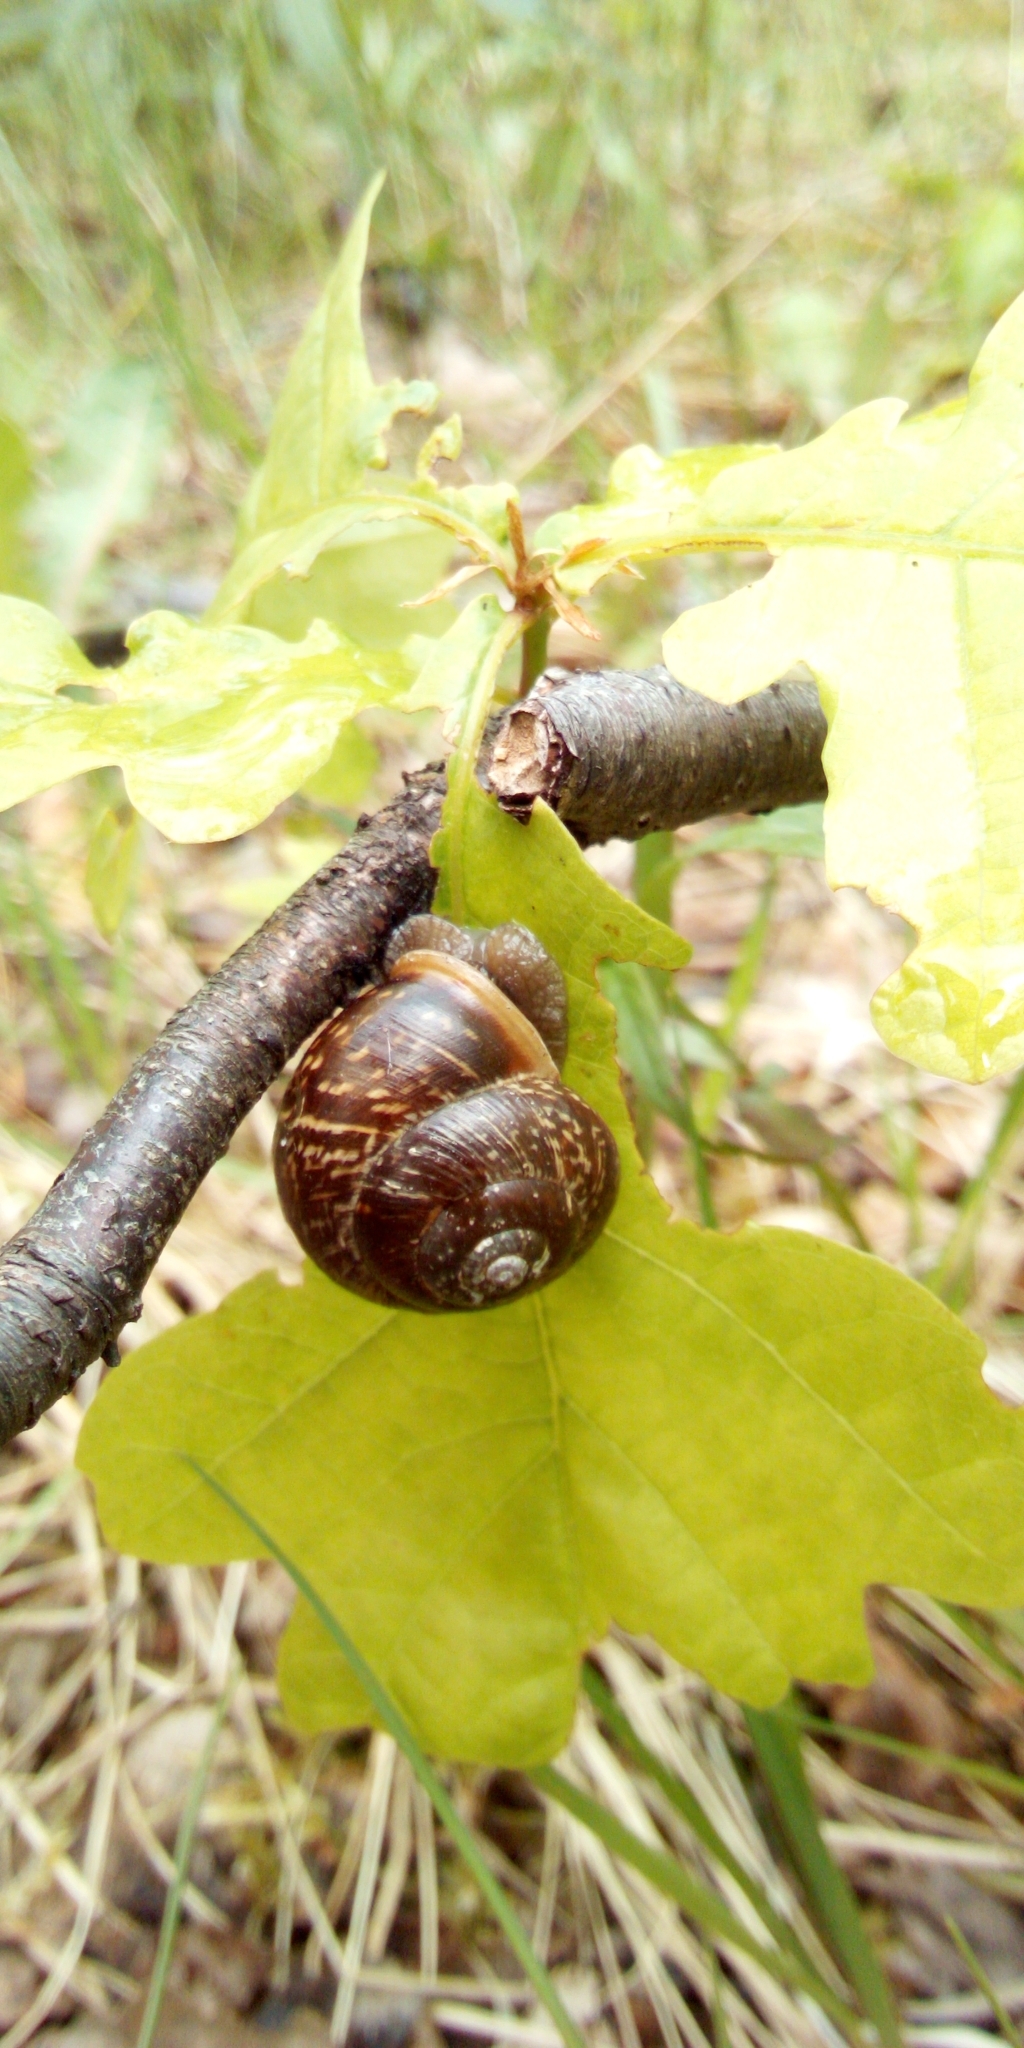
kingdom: Animalia
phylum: Mollusca
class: Gastropoda
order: Stylommatophora
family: Helicidae
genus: Arianta
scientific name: Arianta arbustorum
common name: Copse snail
